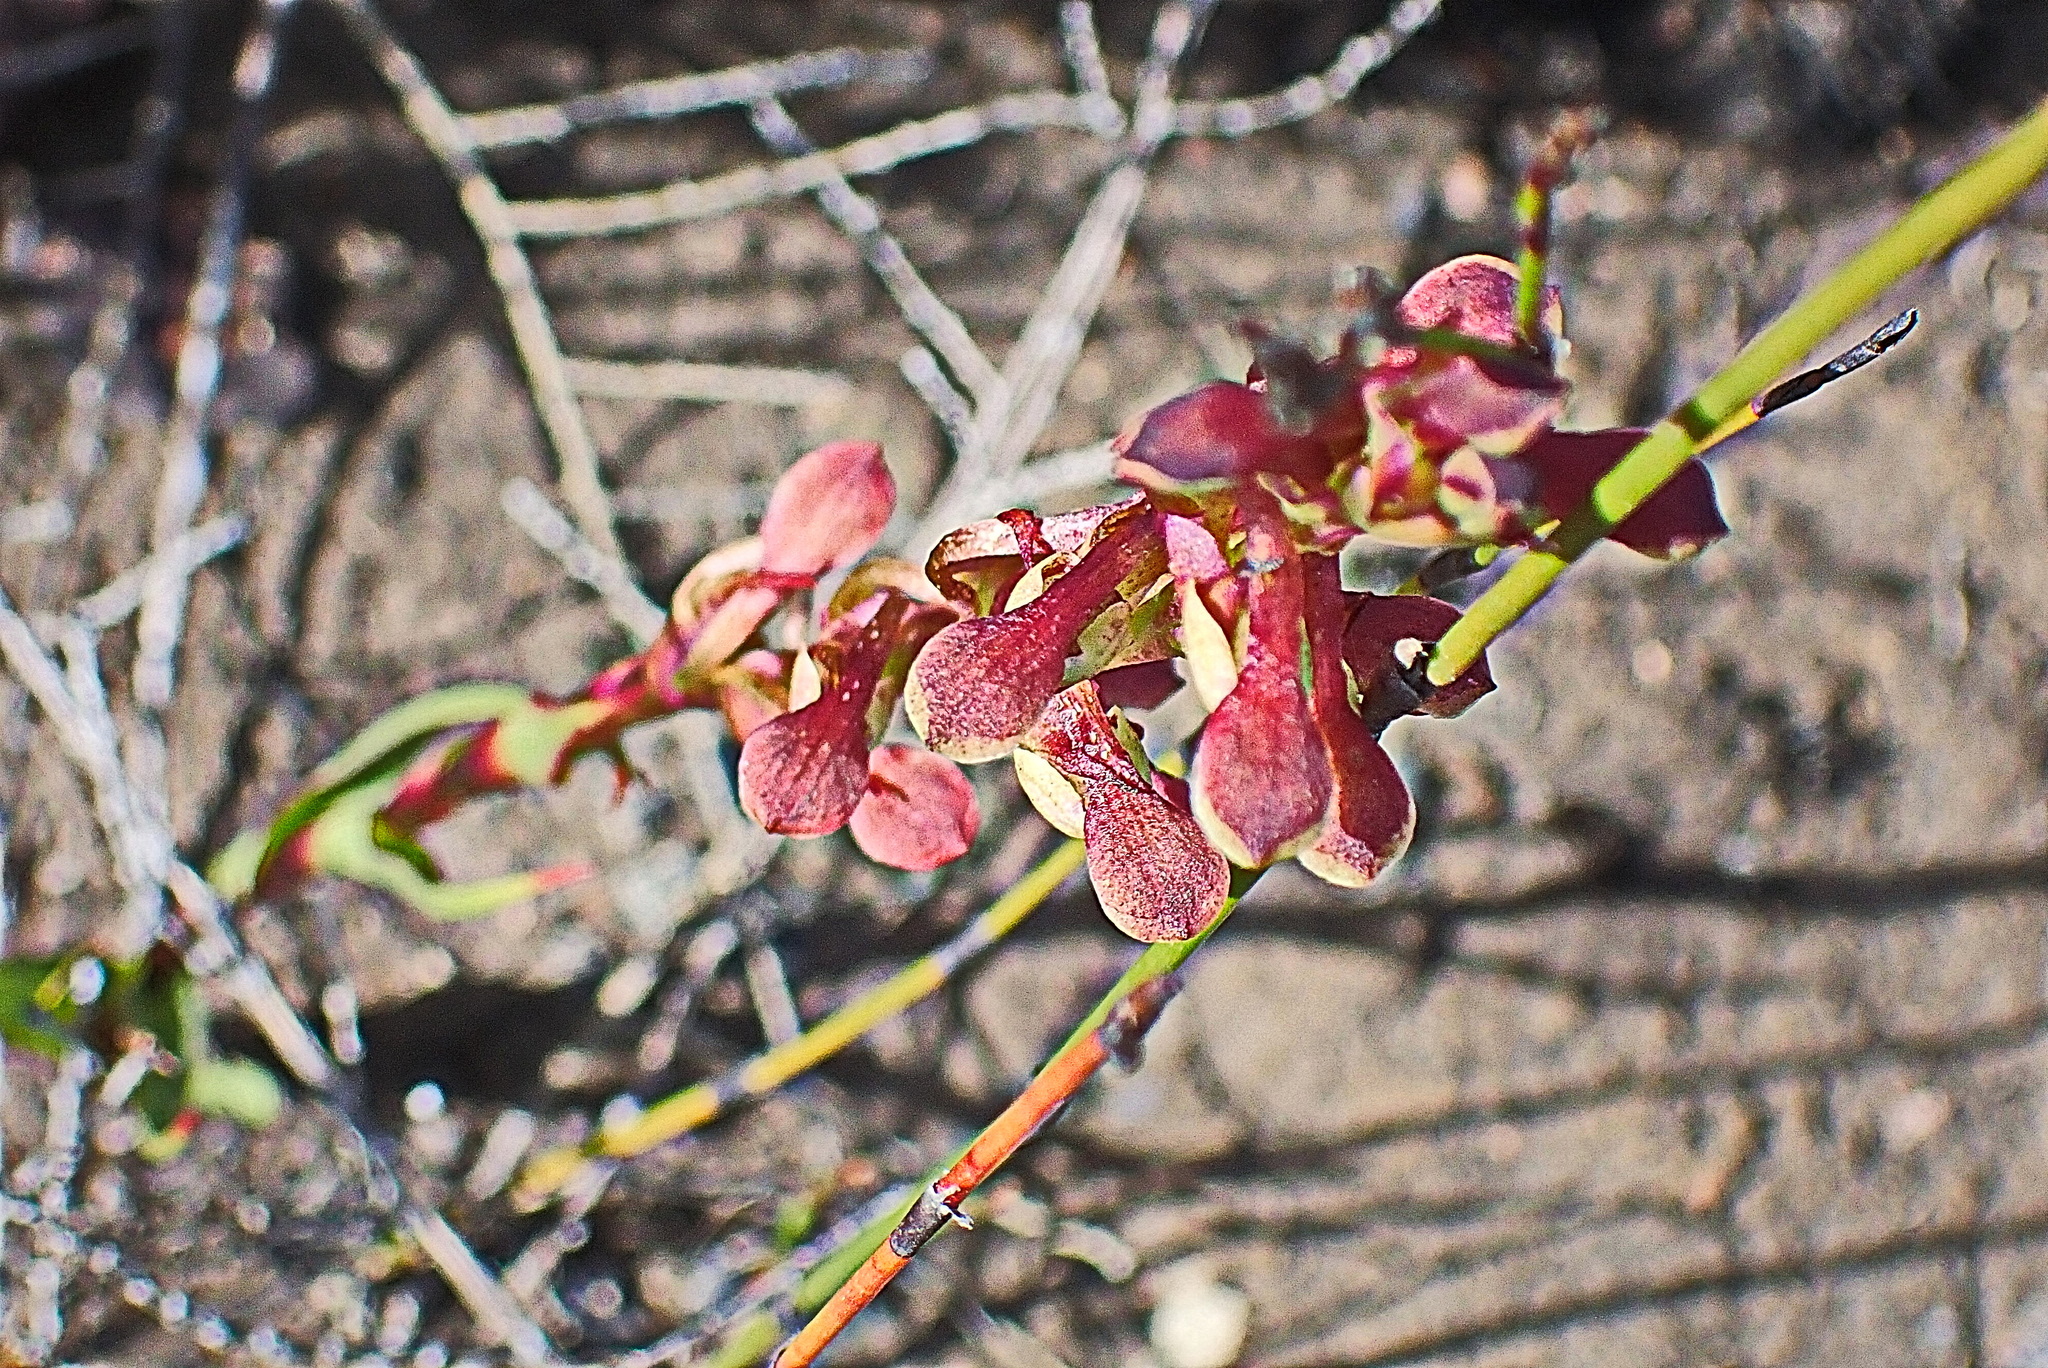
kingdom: Plantae
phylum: Tracheophyta
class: Liliopsida
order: Asparagales
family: Orchidaceae
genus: Disa
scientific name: Disa reticulata
